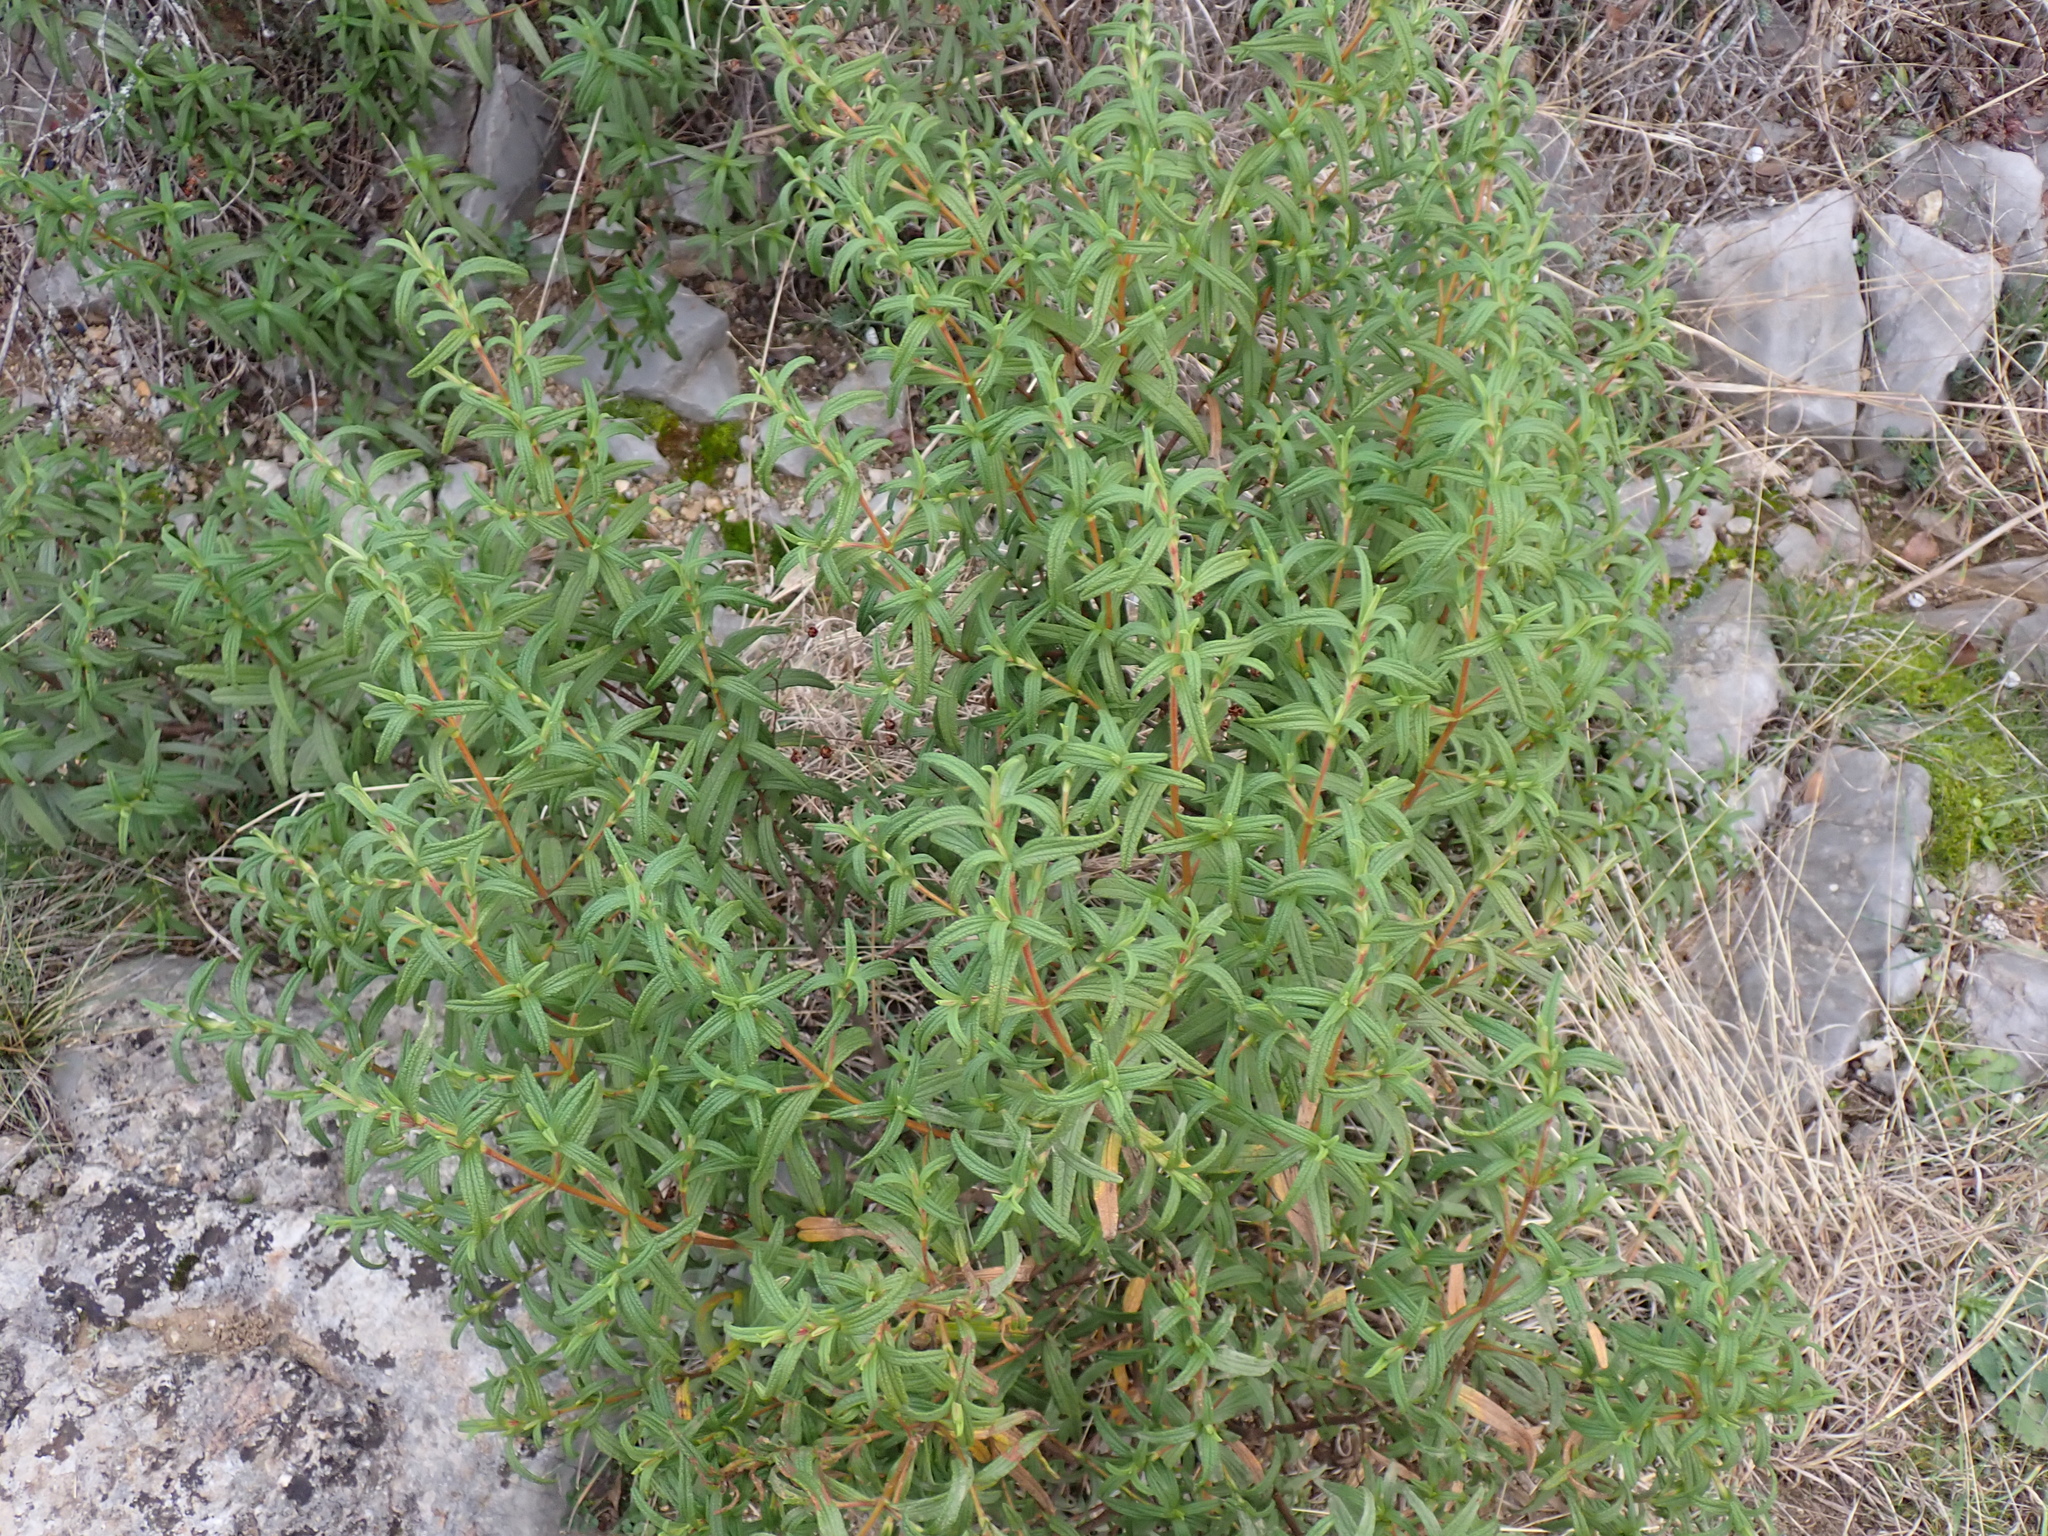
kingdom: Plantae
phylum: Tracheophyta
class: Magnoliopsida
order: Malvales
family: Cistaceae
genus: Cistus
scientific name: Cistus monspeliensis
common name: Montpelier cistus
